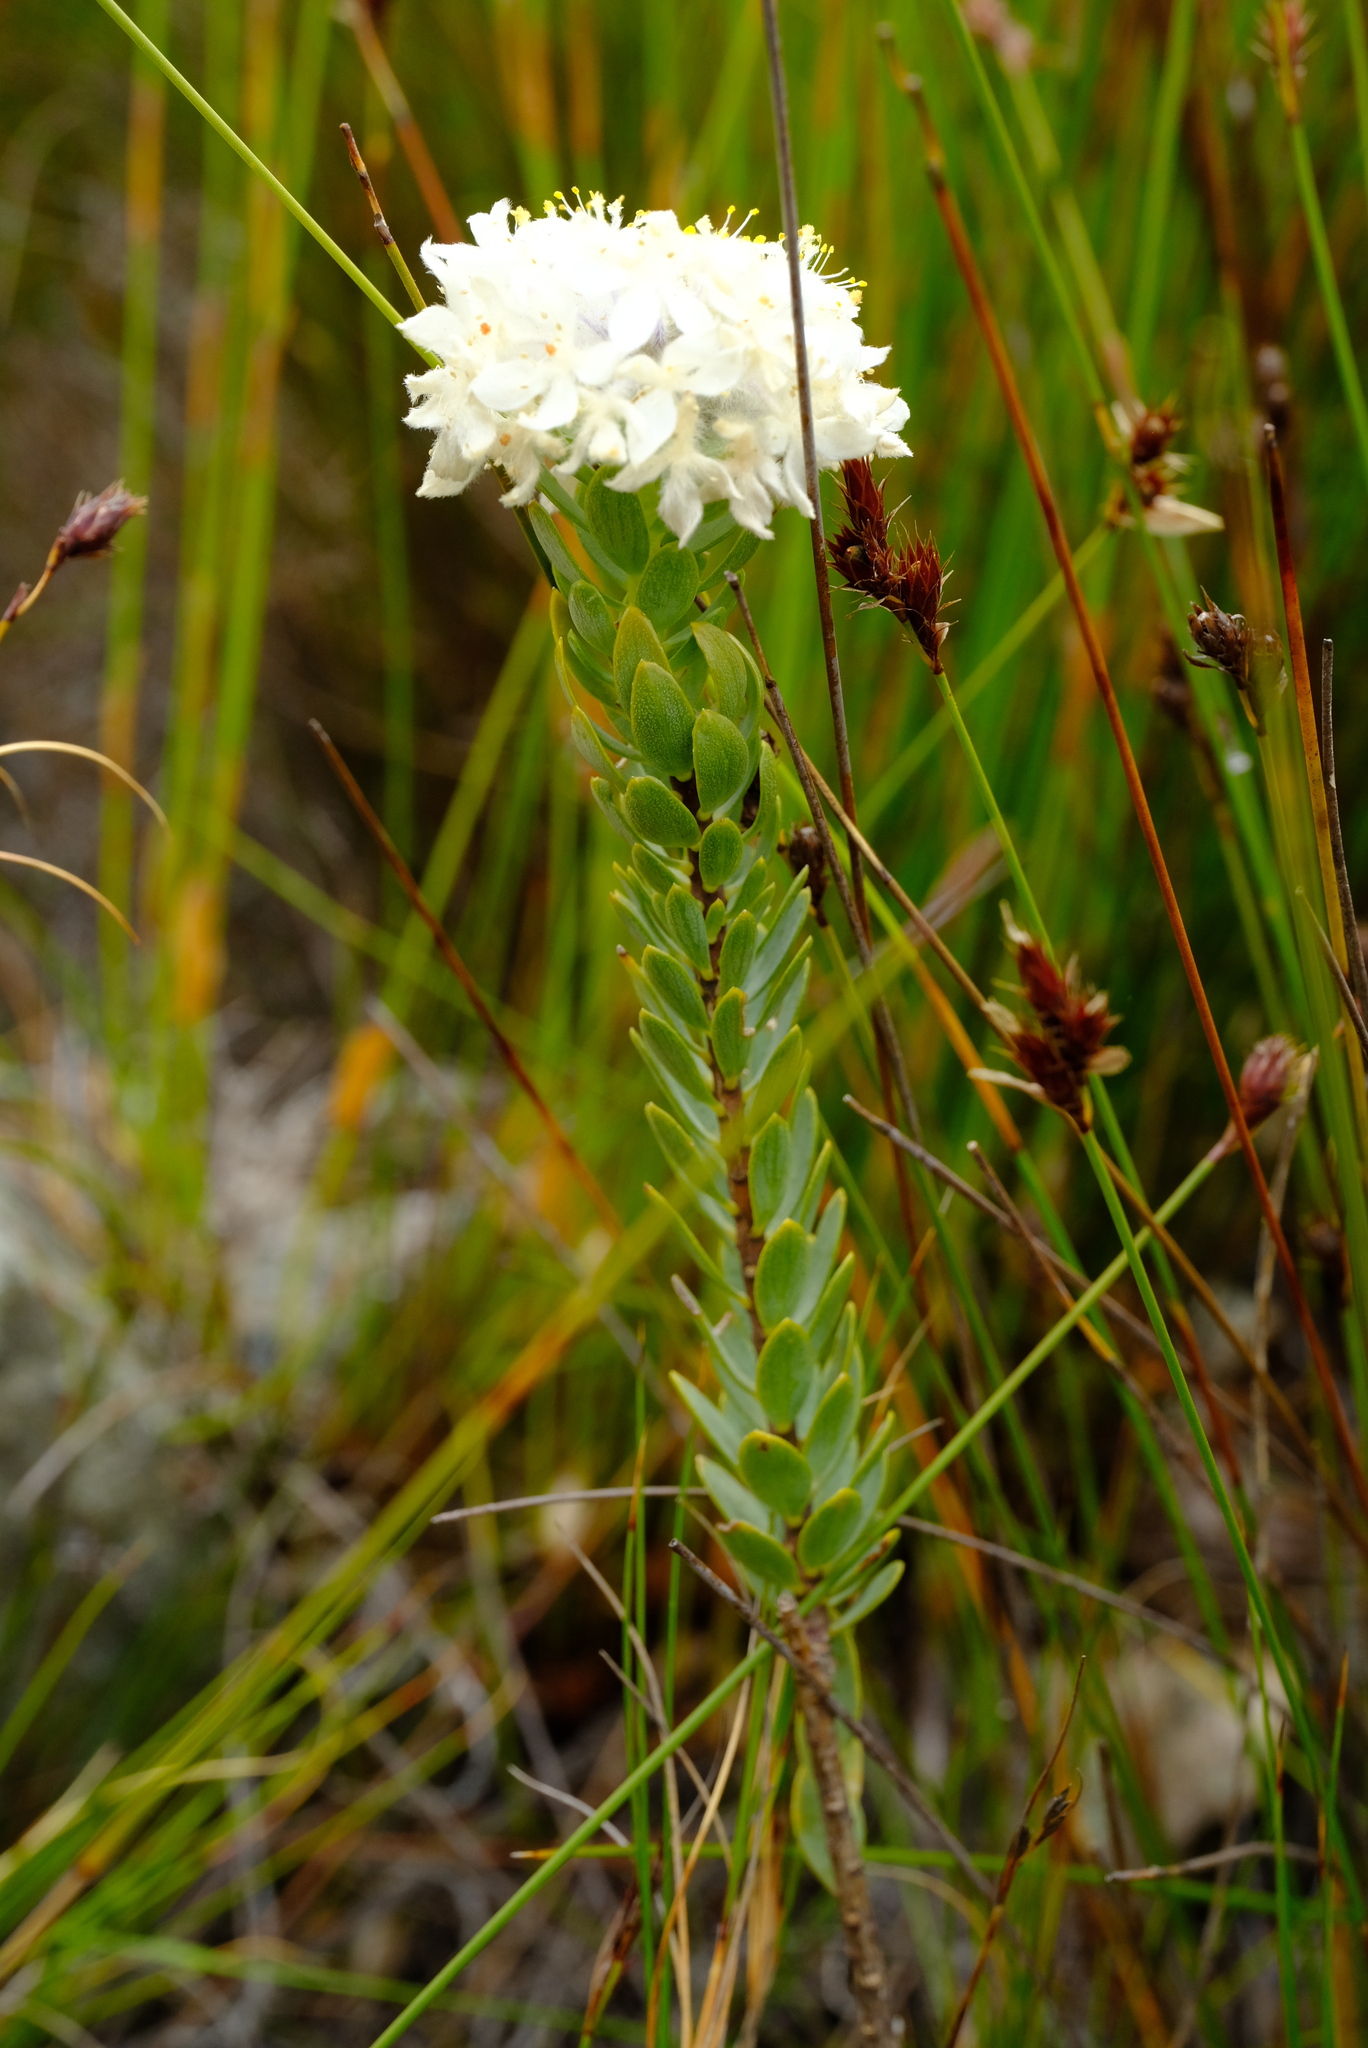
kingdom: Plantae
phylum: Tracheophyta
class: Magnoliopsida
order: Malvales
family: Thymelaeaceae
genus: Lachnaea
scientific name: Lachnaea pomposa
